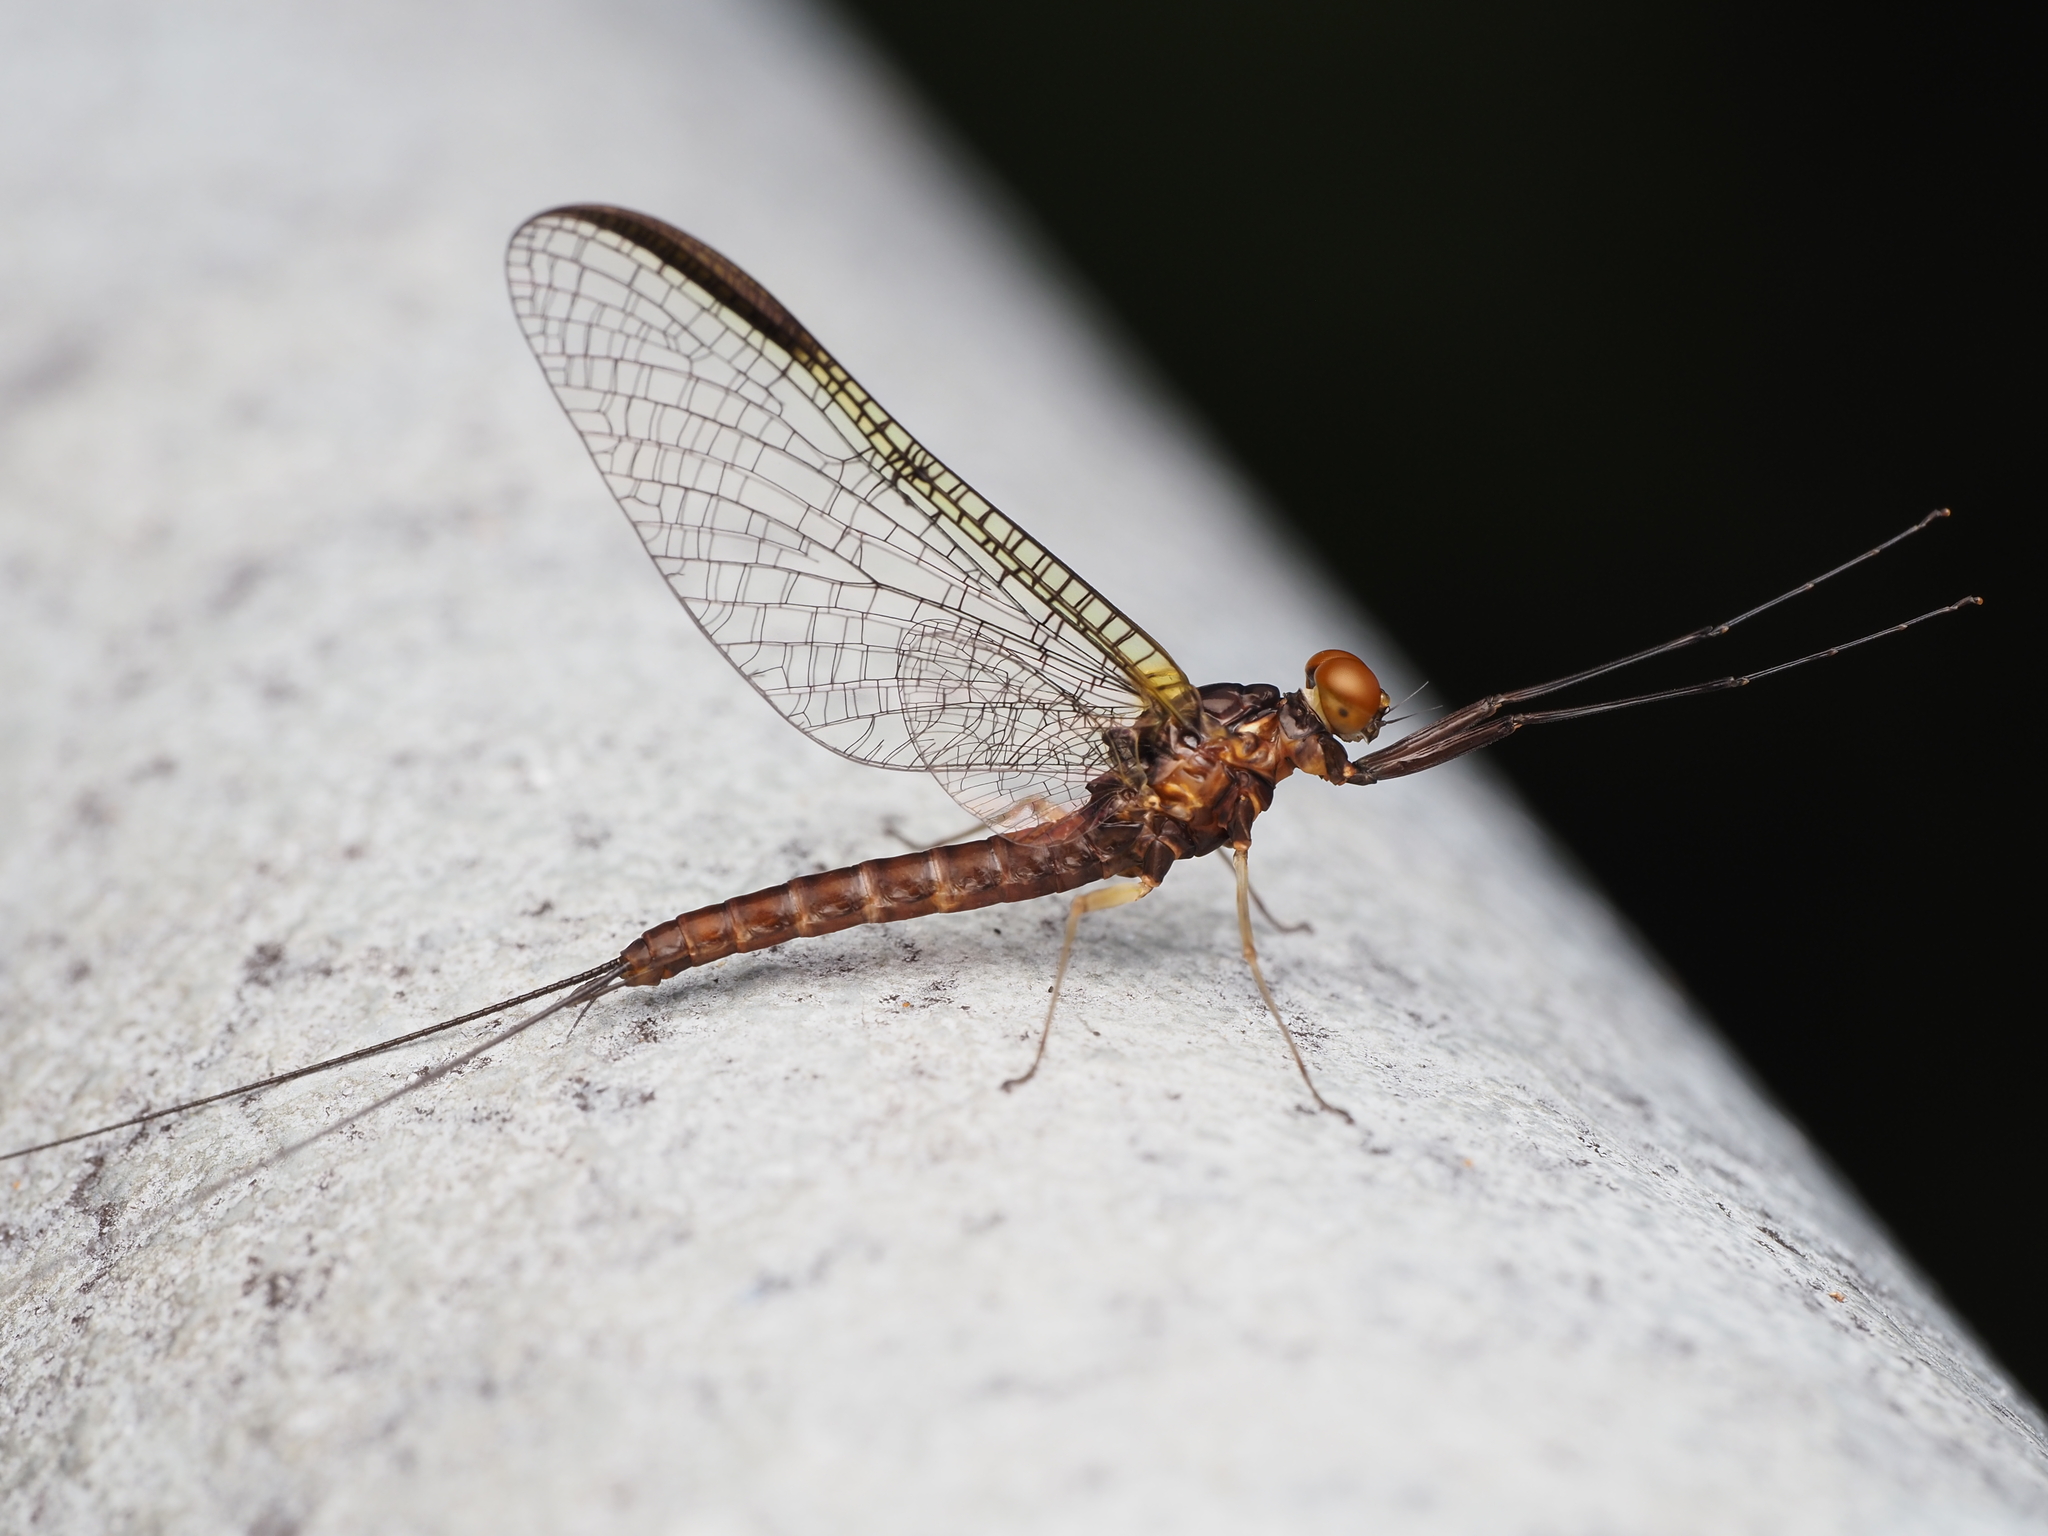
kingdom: Animalia
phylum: Arthropoda
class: Insecta
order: Ephemeroptera
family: Coloburiscidae
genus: Coloburiscus
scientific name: Coloburiscus humeralis
